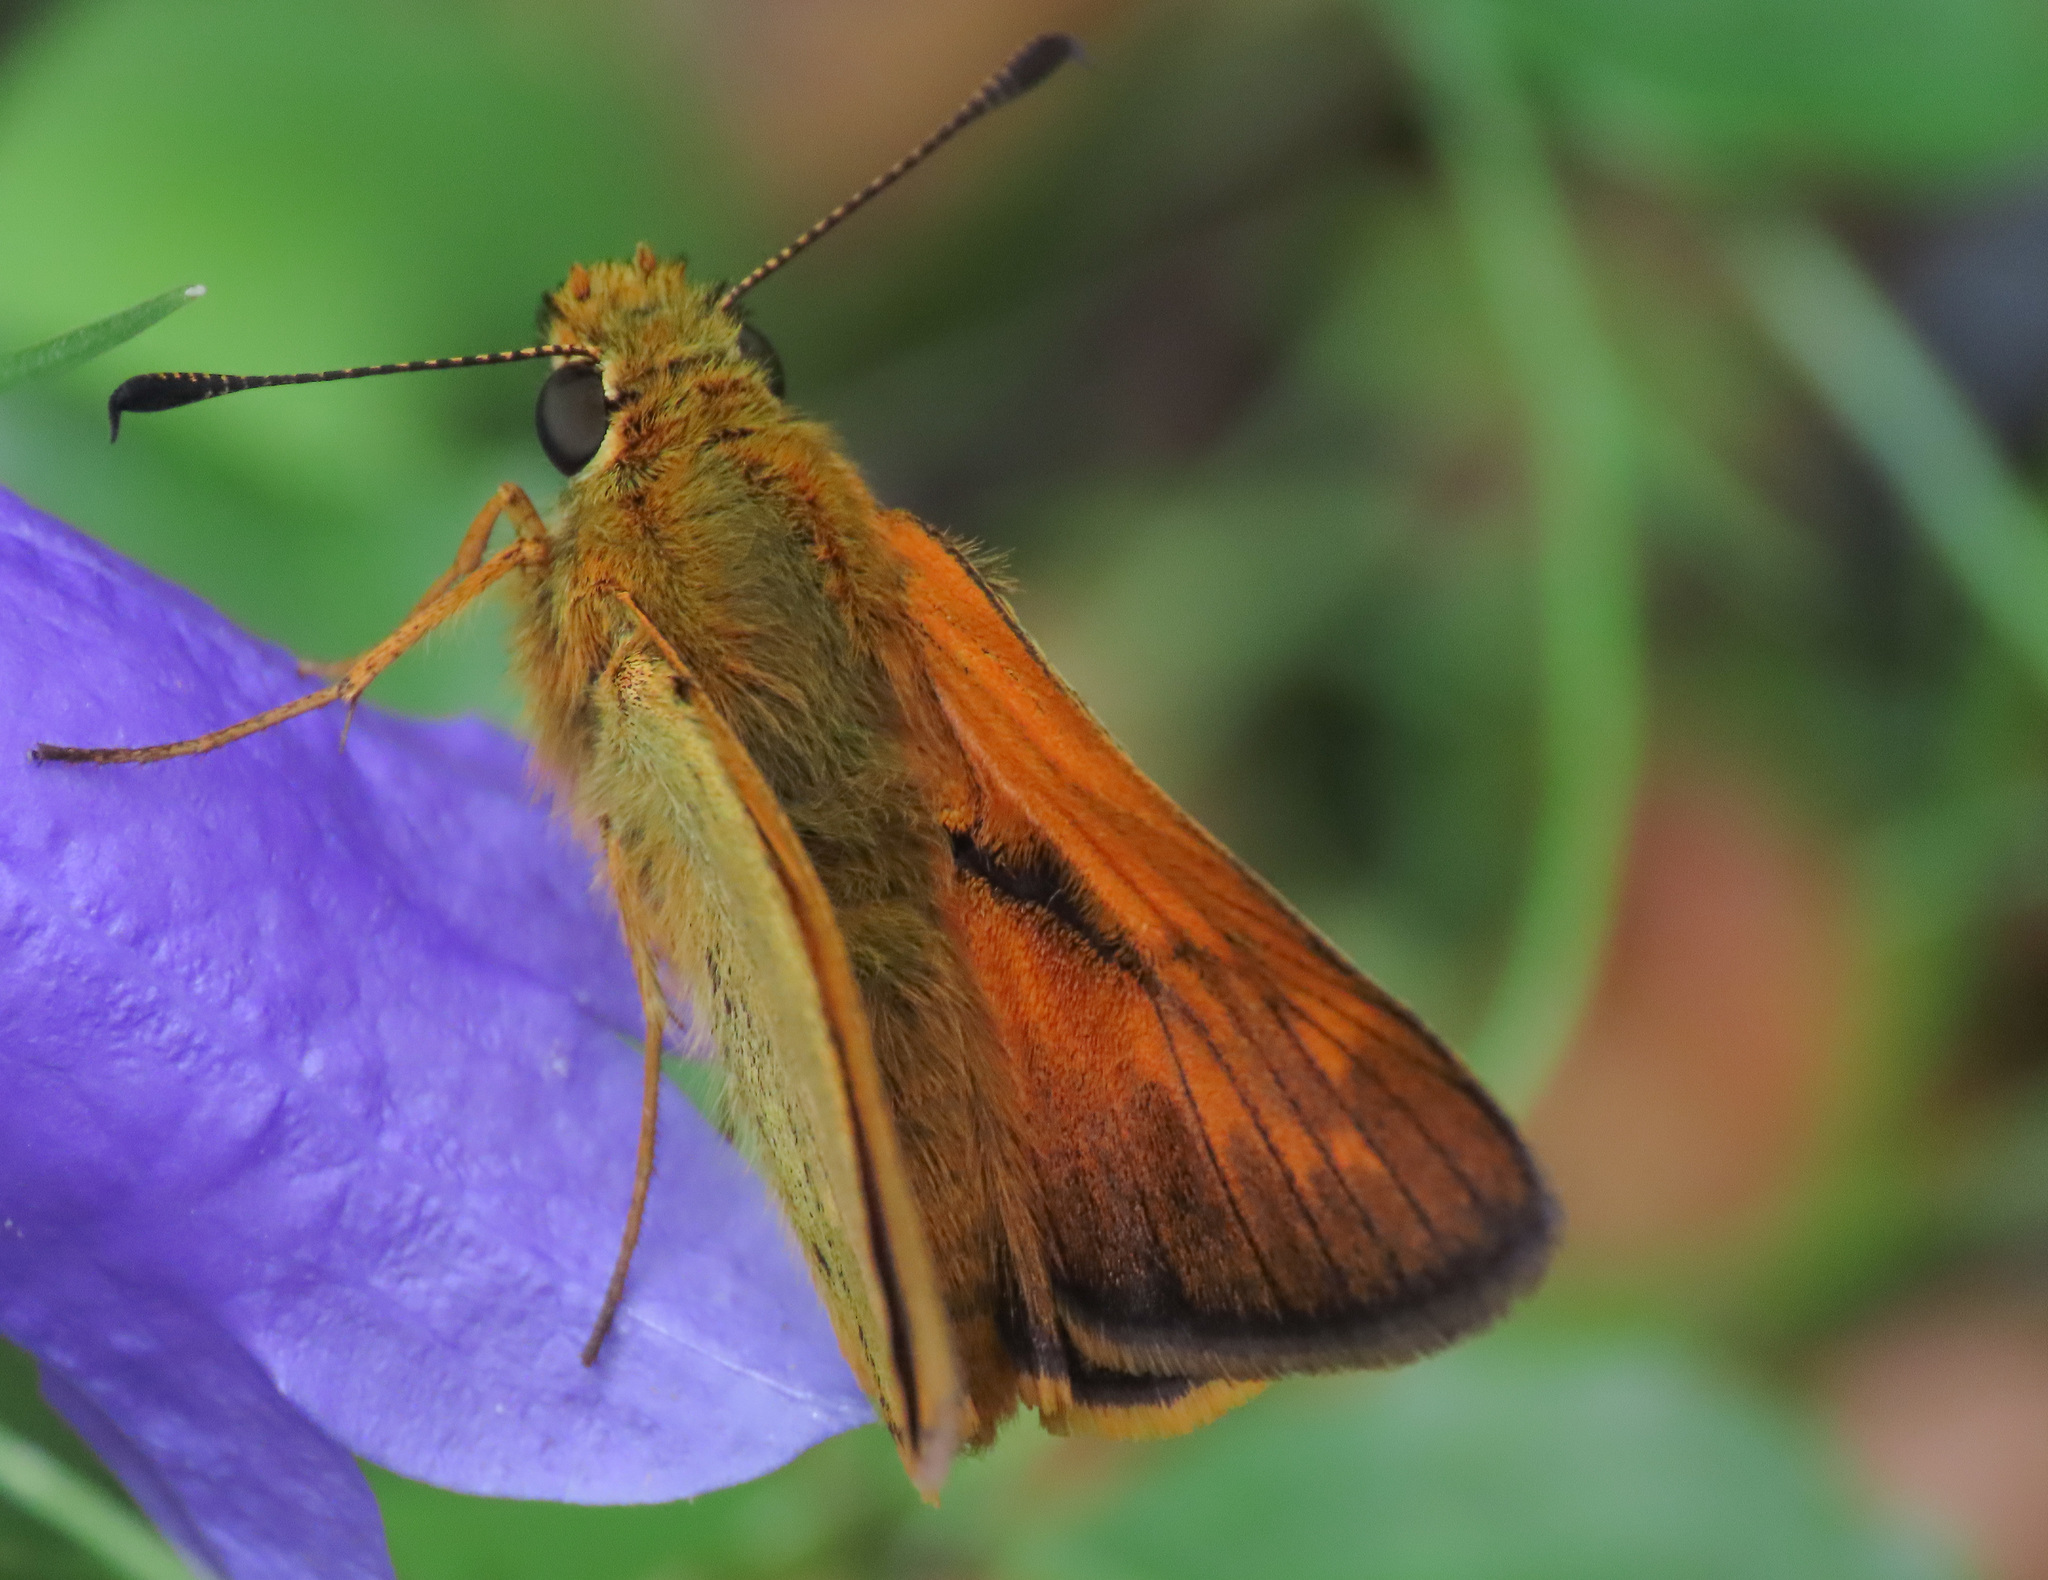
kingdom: Animalia
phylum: Arthropoda
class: Insecta
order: Lepidoptera
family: Hesperiidae
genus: Ochlodes
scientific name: Ochlodes venata
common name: Large skipper
